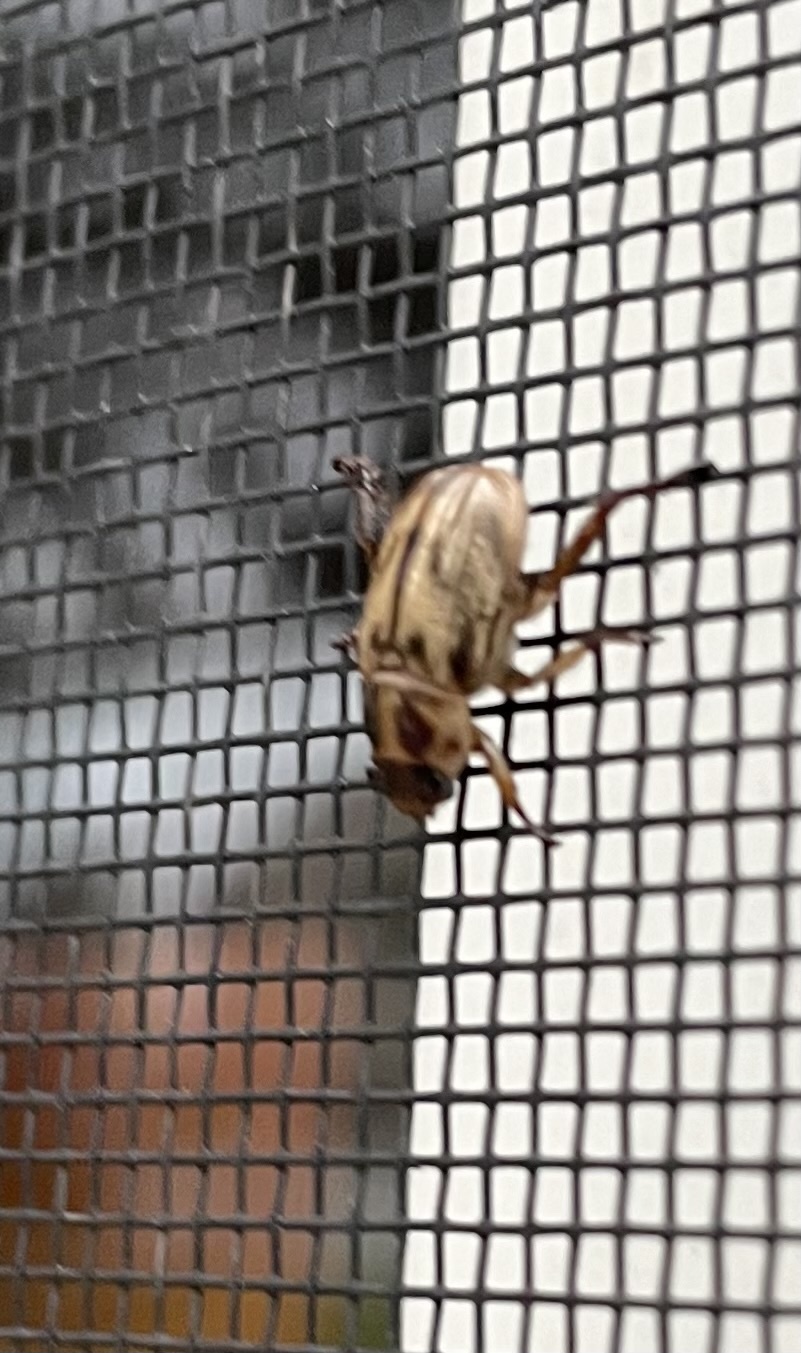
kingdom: Animalia
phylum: Arthropoda
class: Insecta
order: Coleoptera
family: Scarabaeidae
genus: Exomala
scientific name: Exomala orientalis
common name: Oriental beetle
